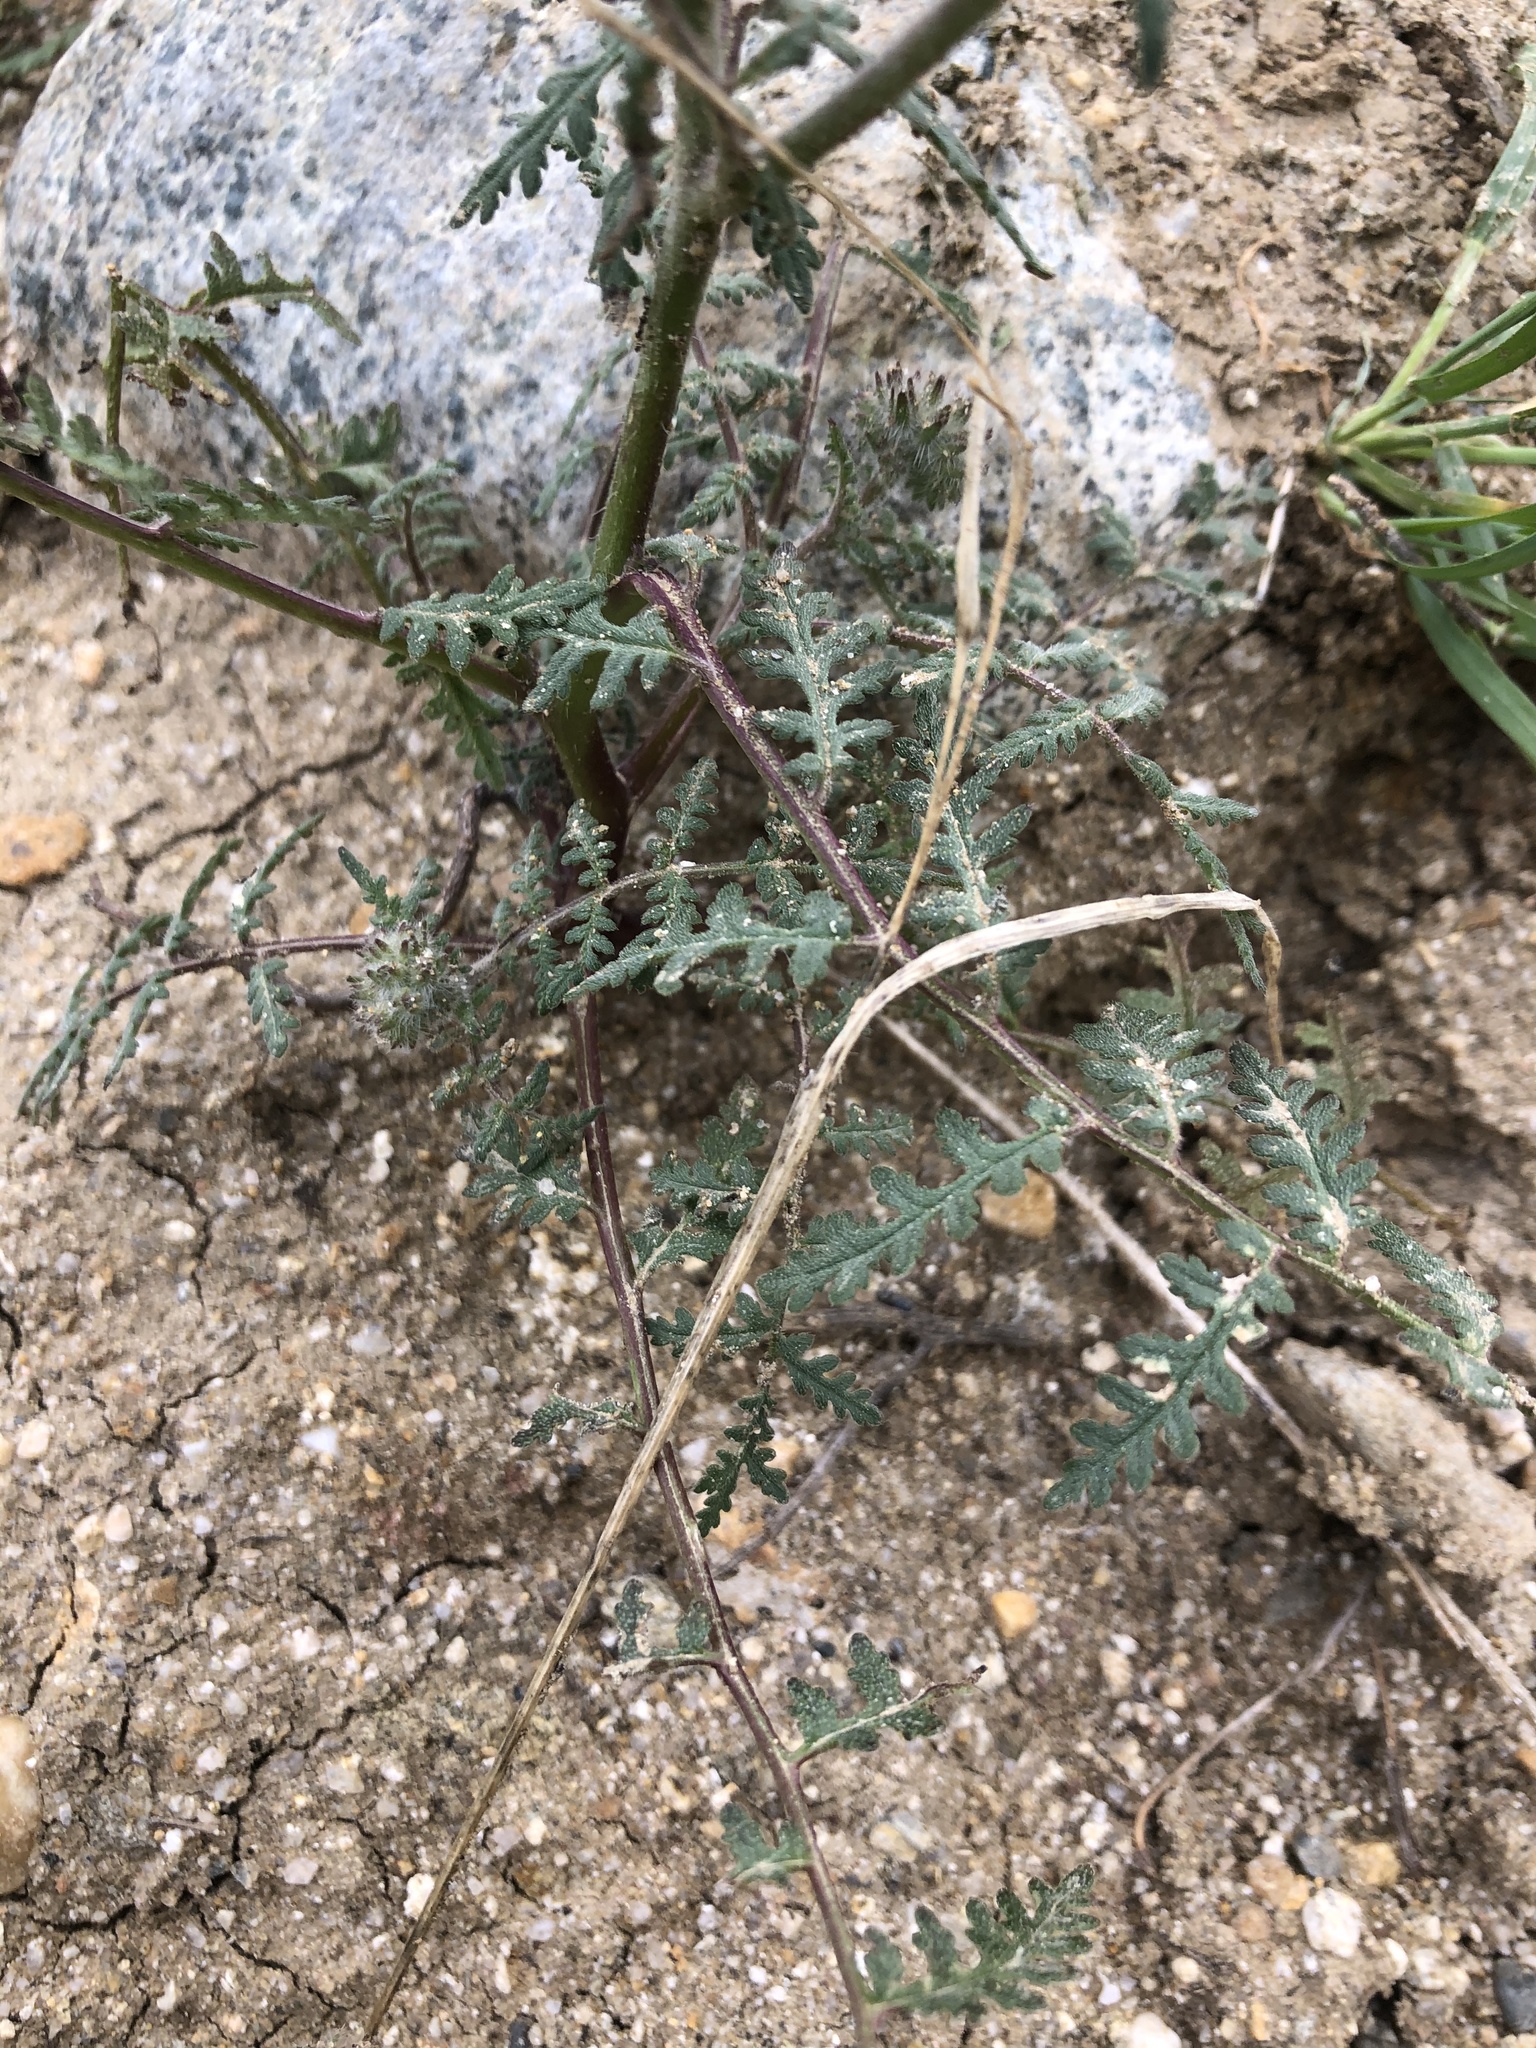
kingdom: Plantae
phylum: Tracheophyta
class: Magnoliopsida
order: Boraginales
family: Hydrophyllaceae
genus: Phacelia
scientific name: Phacelia tanacetifolia
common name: Phacelia
